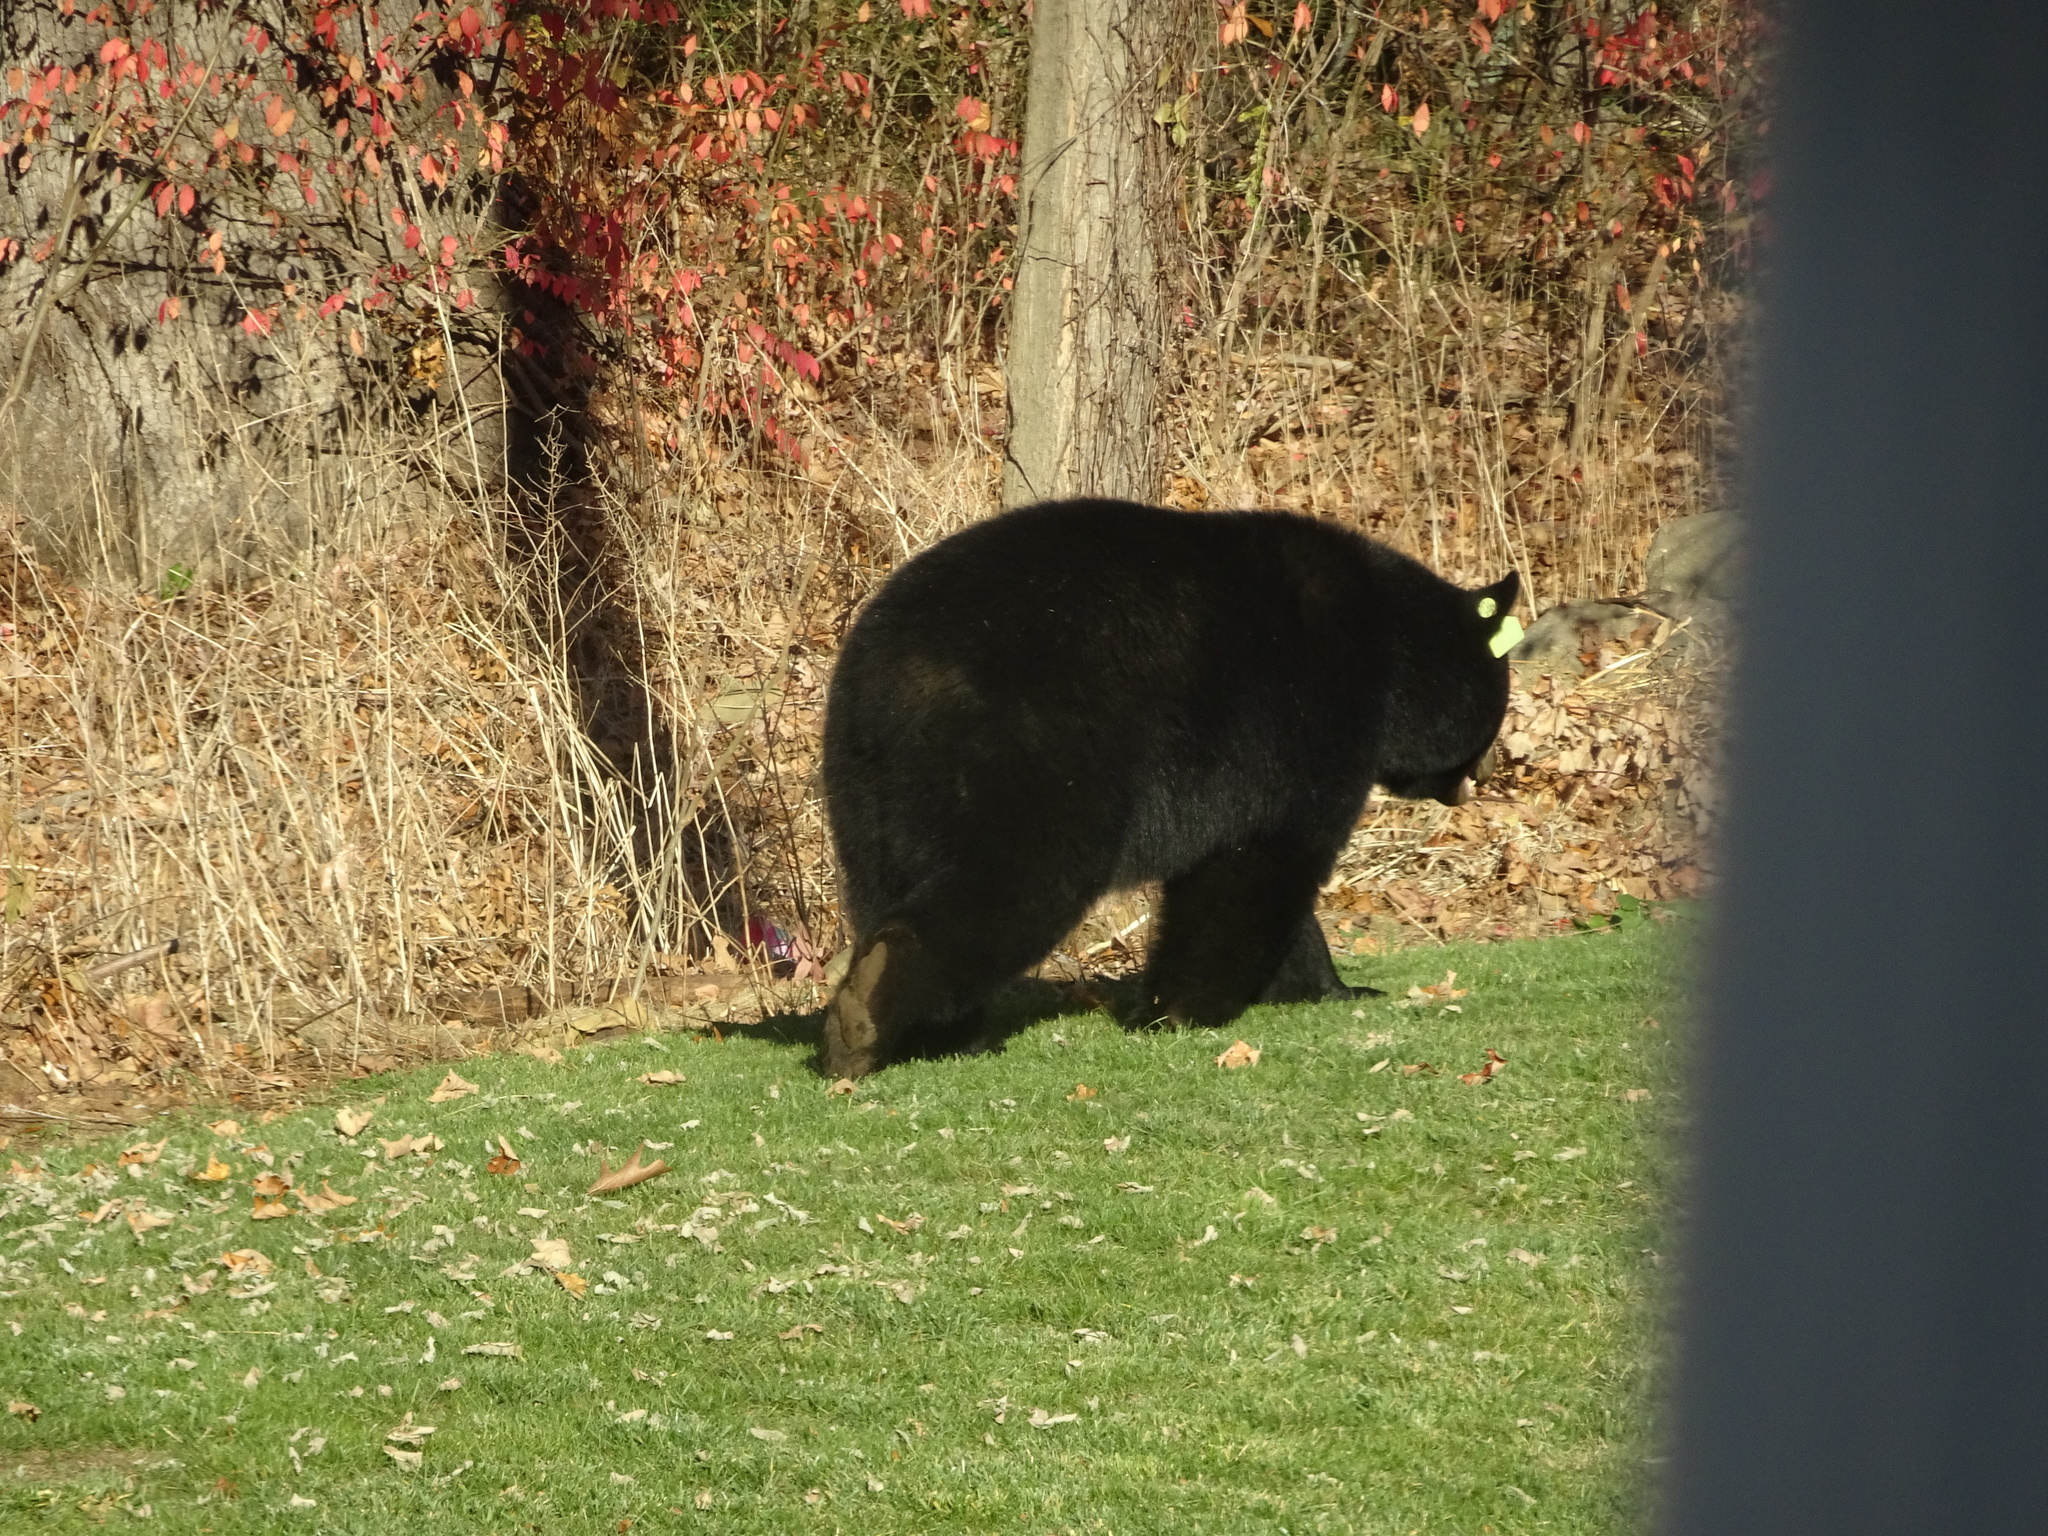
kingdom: Animalia
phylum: Chordata
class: Mammalia
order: Carnivora
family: Ursidae
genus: Ursus
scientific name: Ursus americanus
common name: American black bear
